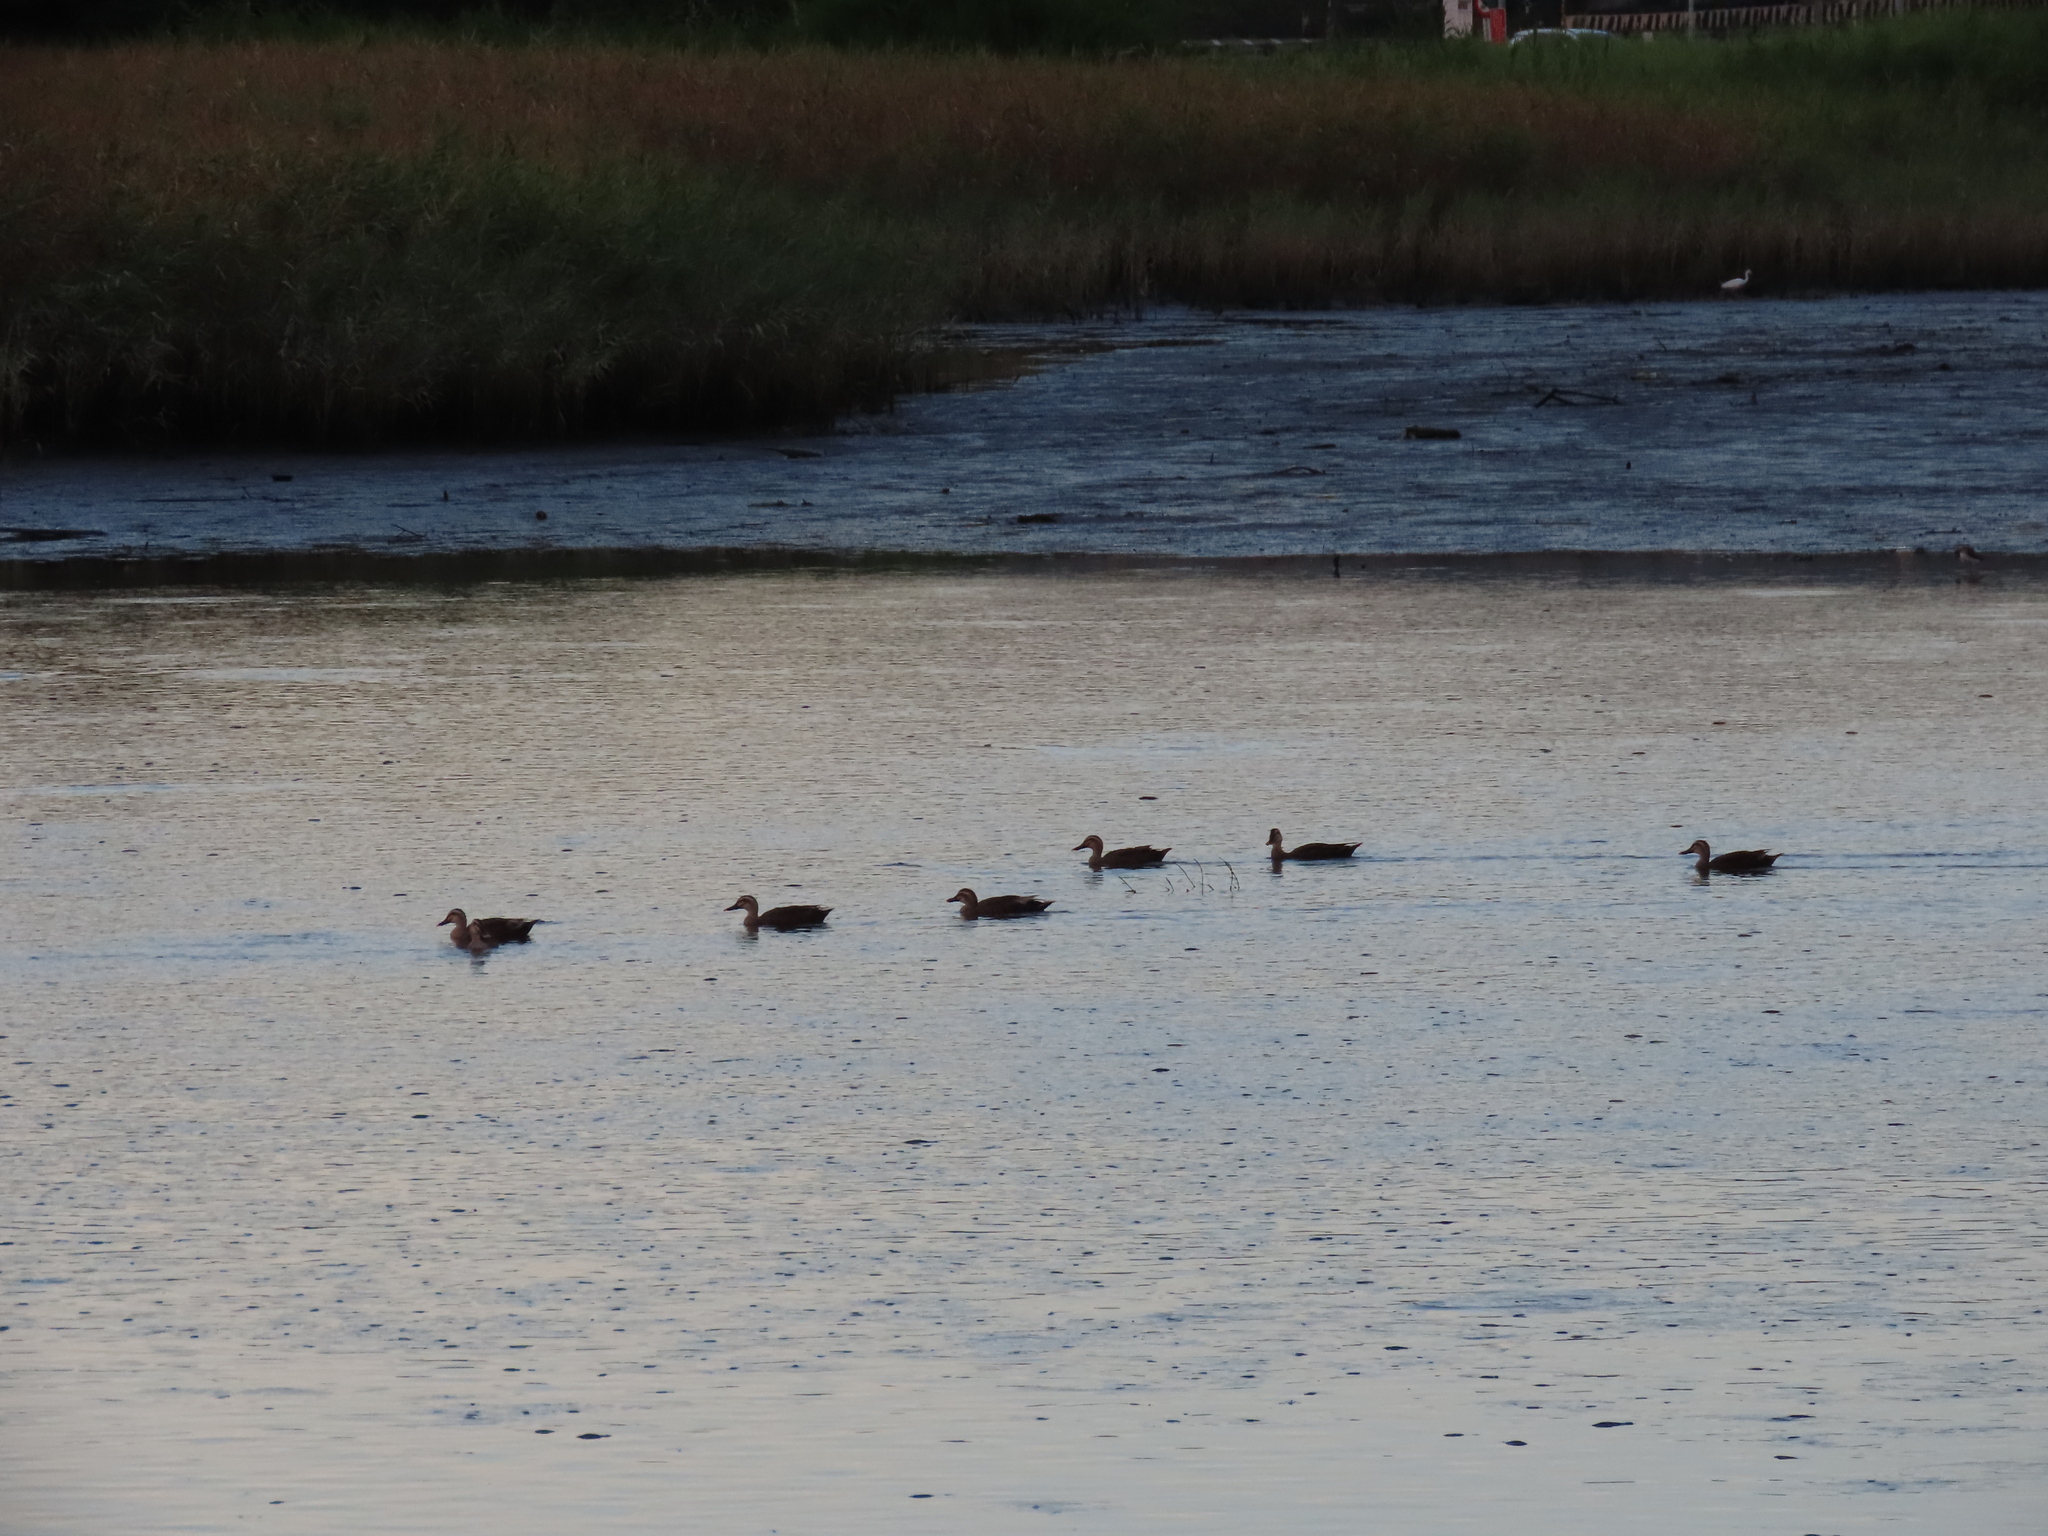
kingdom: Animalia
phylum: Chordata
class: Aves
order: Anseriformes
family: Anatidae
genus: Anas
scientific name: Anas zonorhyncha
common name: Eastern spot-billed duck
